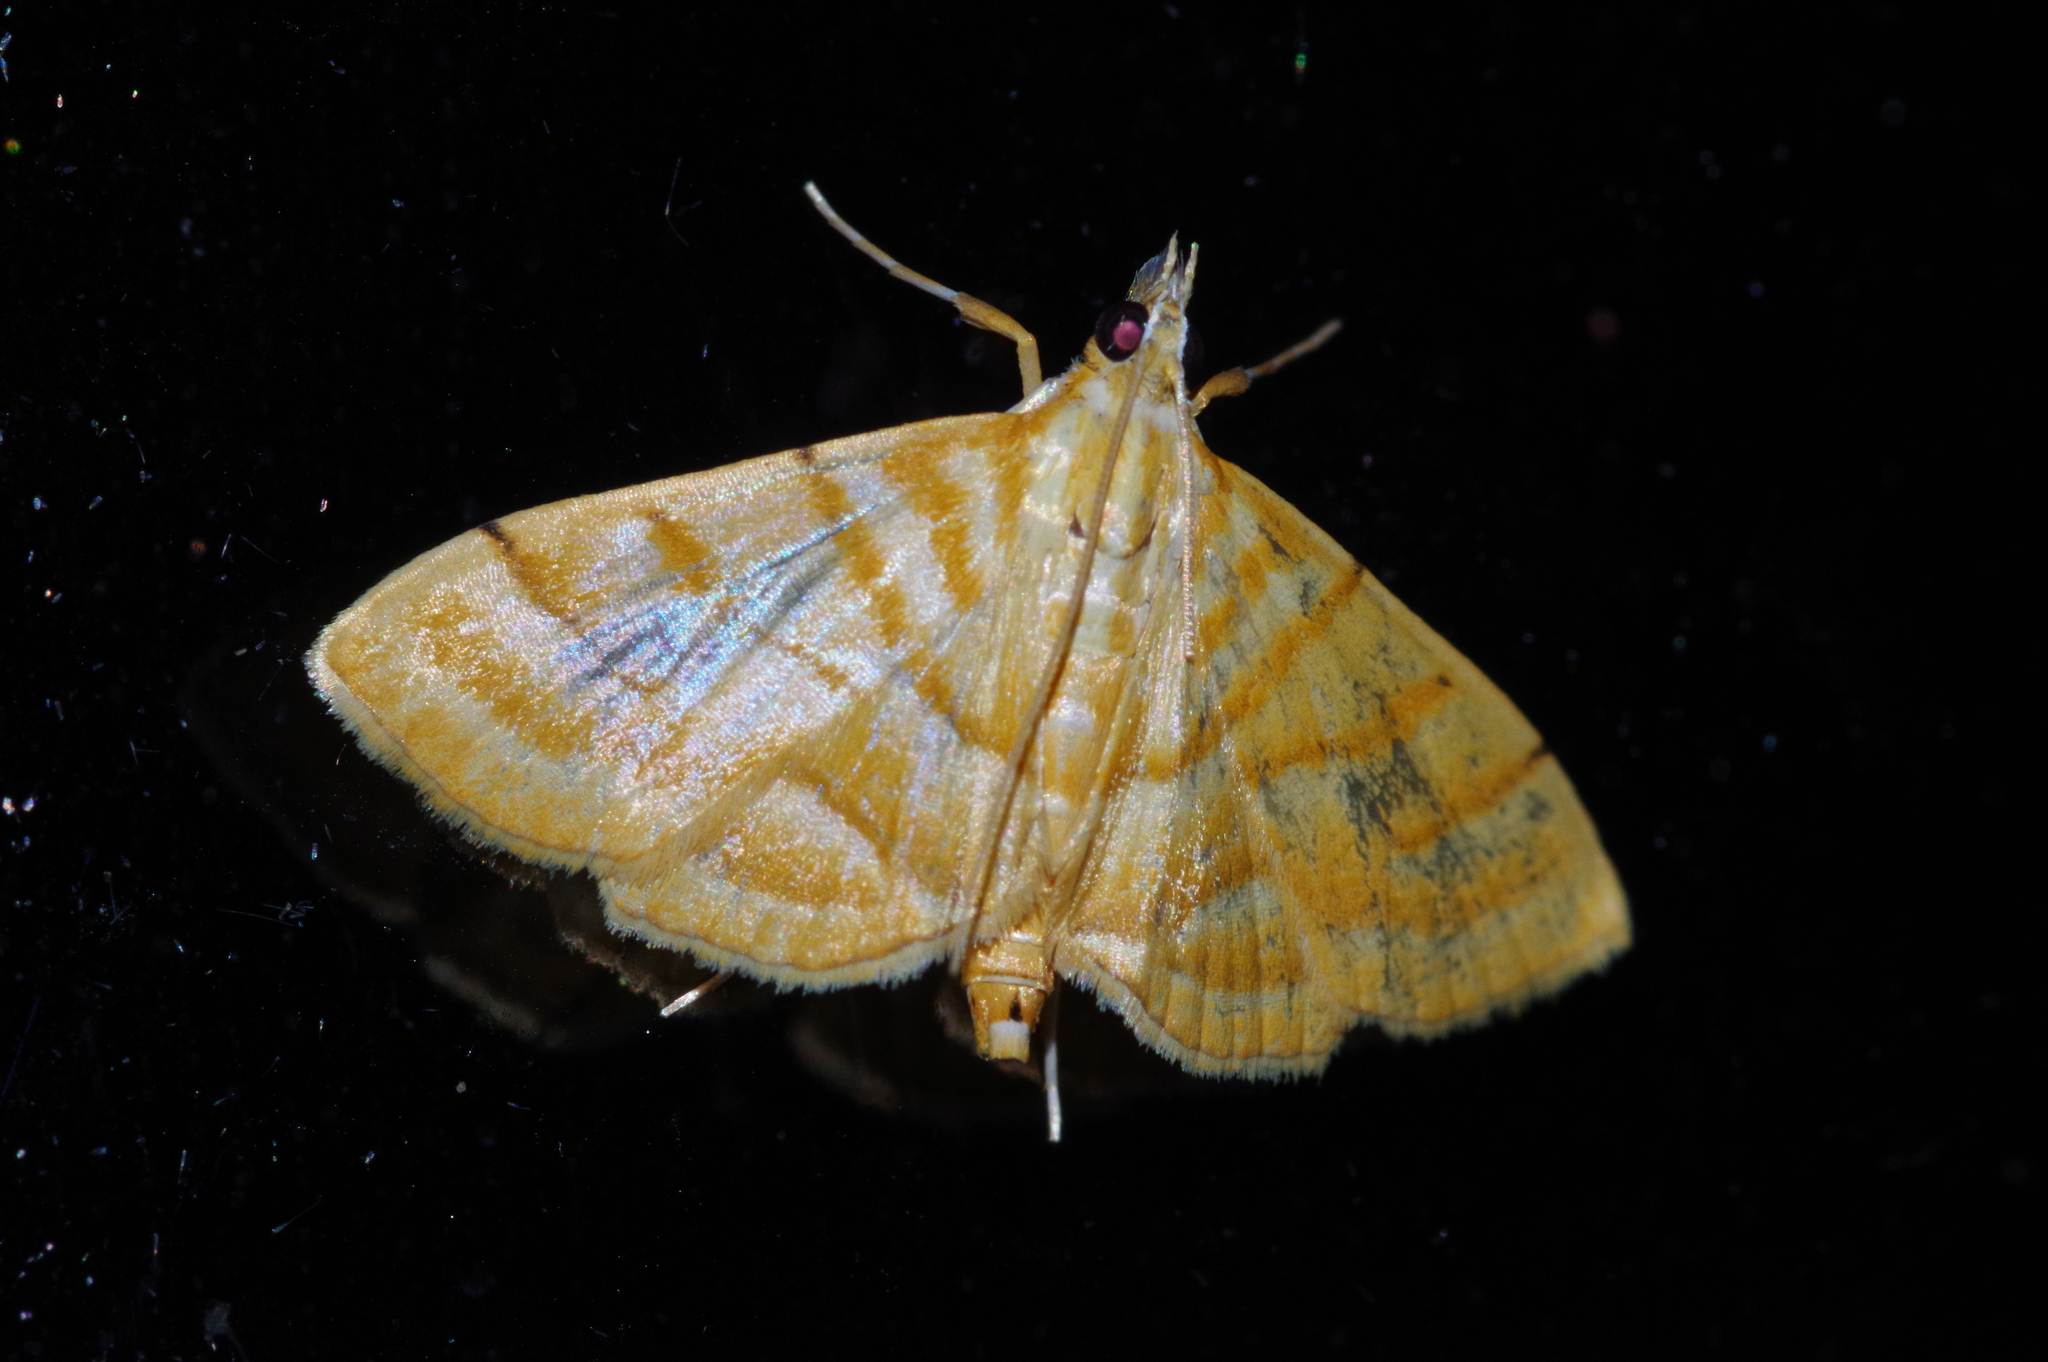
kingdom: Animalia
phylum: Arthropoda
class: Insecta
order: Lepidoptera
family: Crambidae
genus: Pagyda
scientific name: Pagyda quinquelineata
